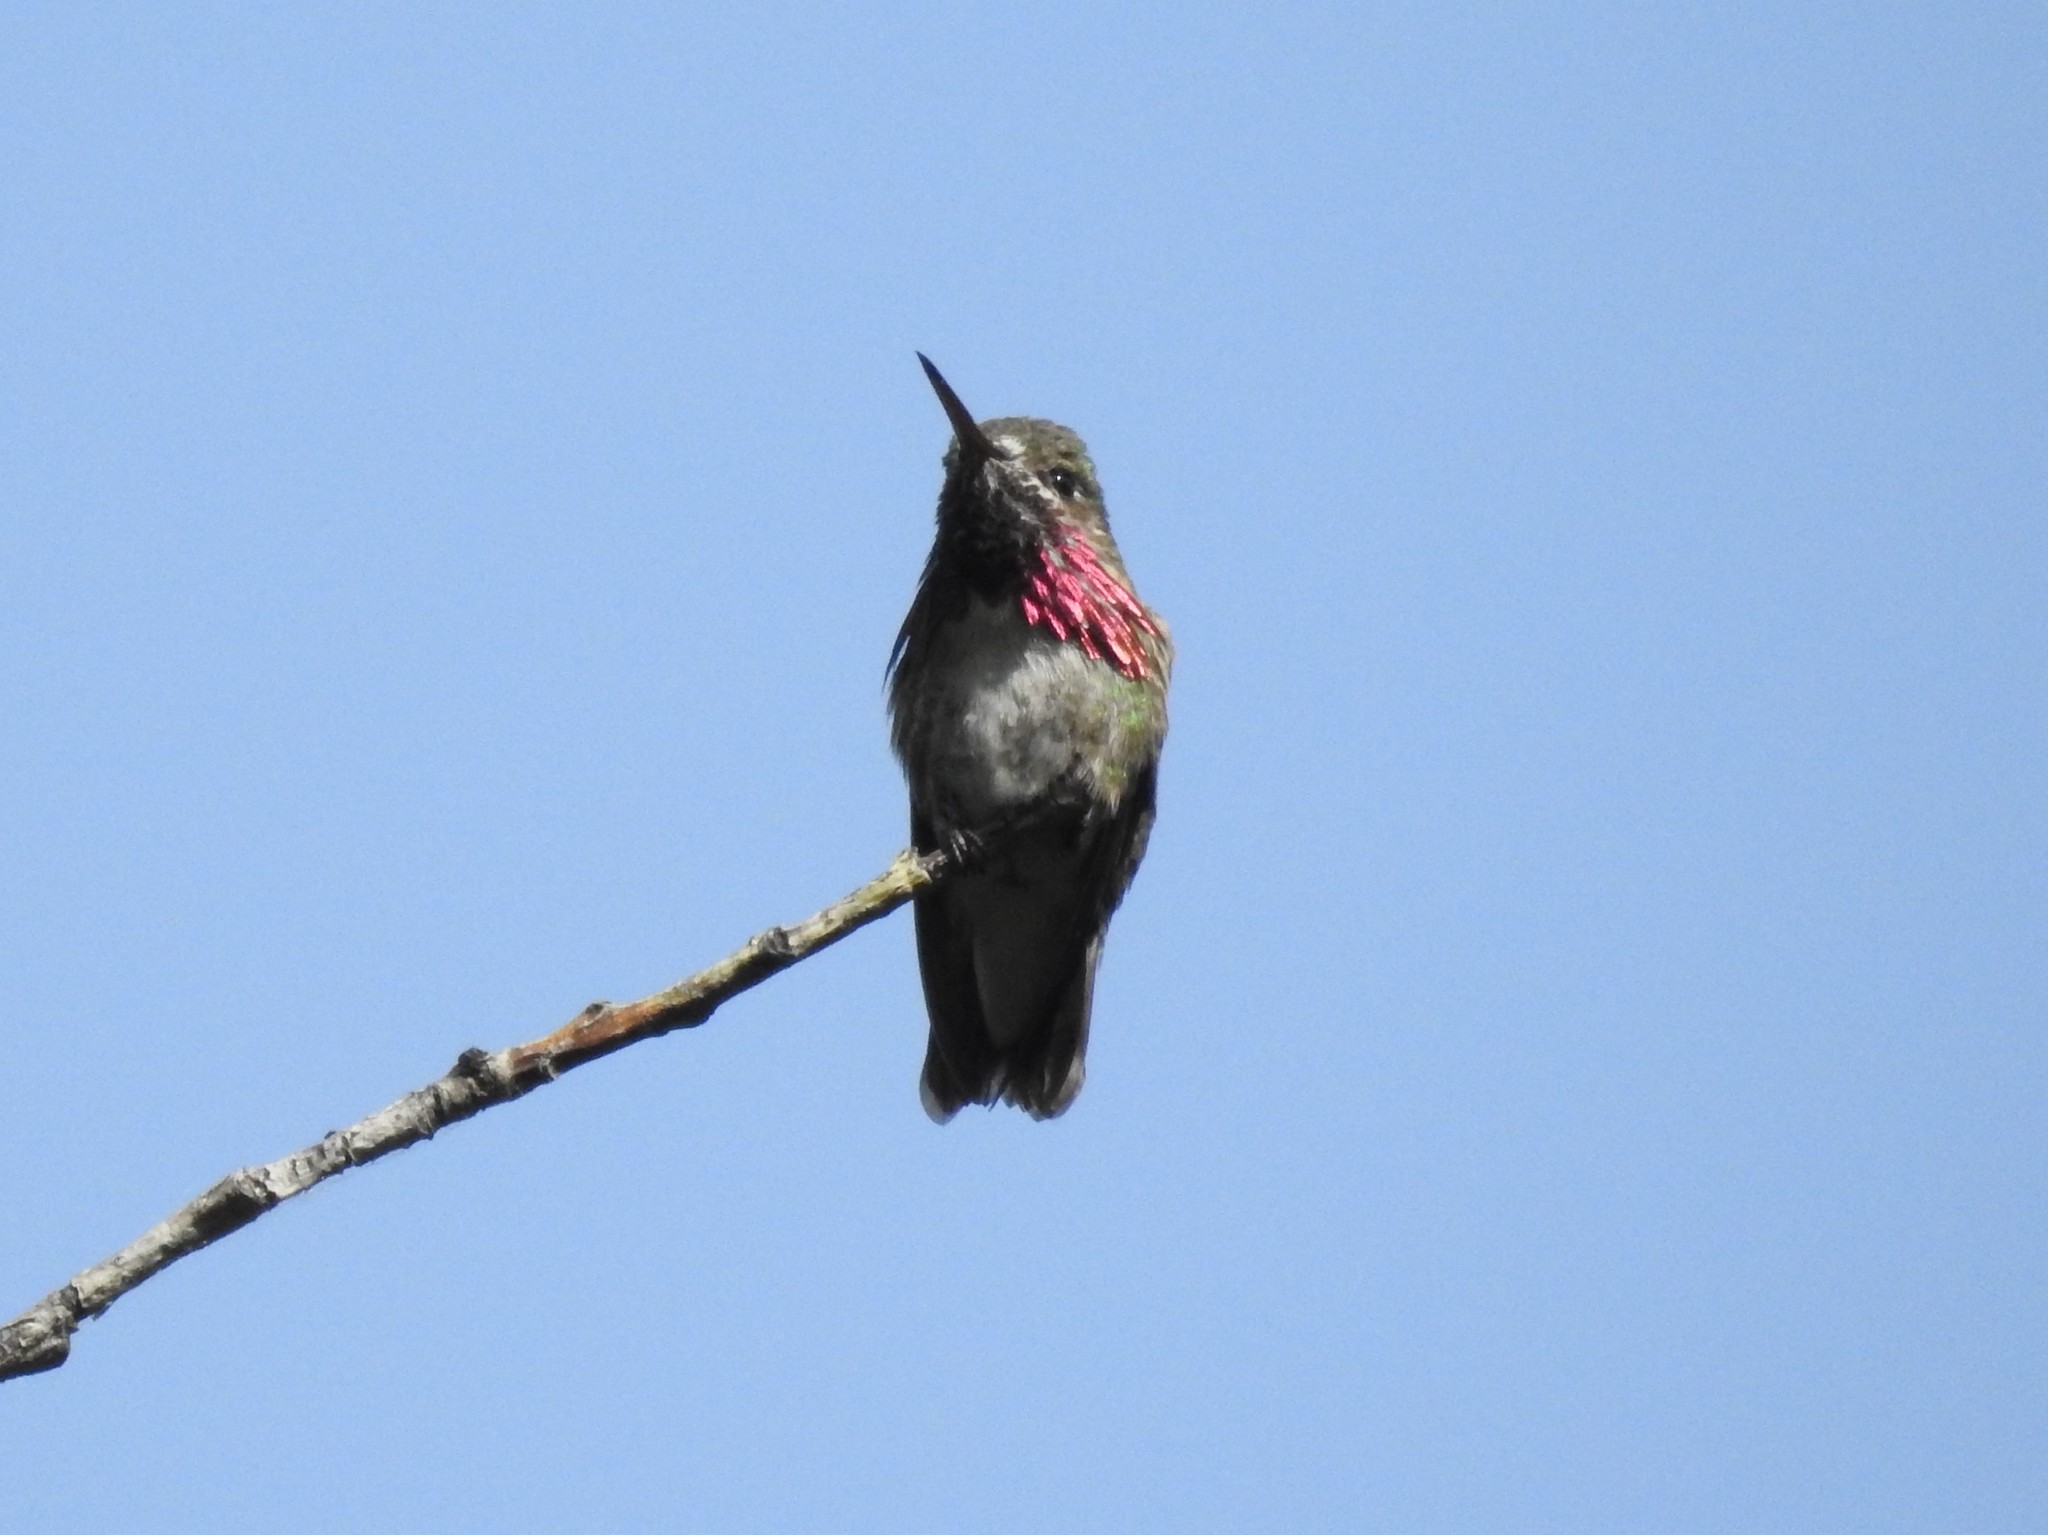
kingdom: Animalia
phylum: Chordata
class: Aves
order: Apodiformes
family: Trochilidae
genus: Selasphorus
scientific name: Selasphorus calliope
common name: Calliope hummingbird
